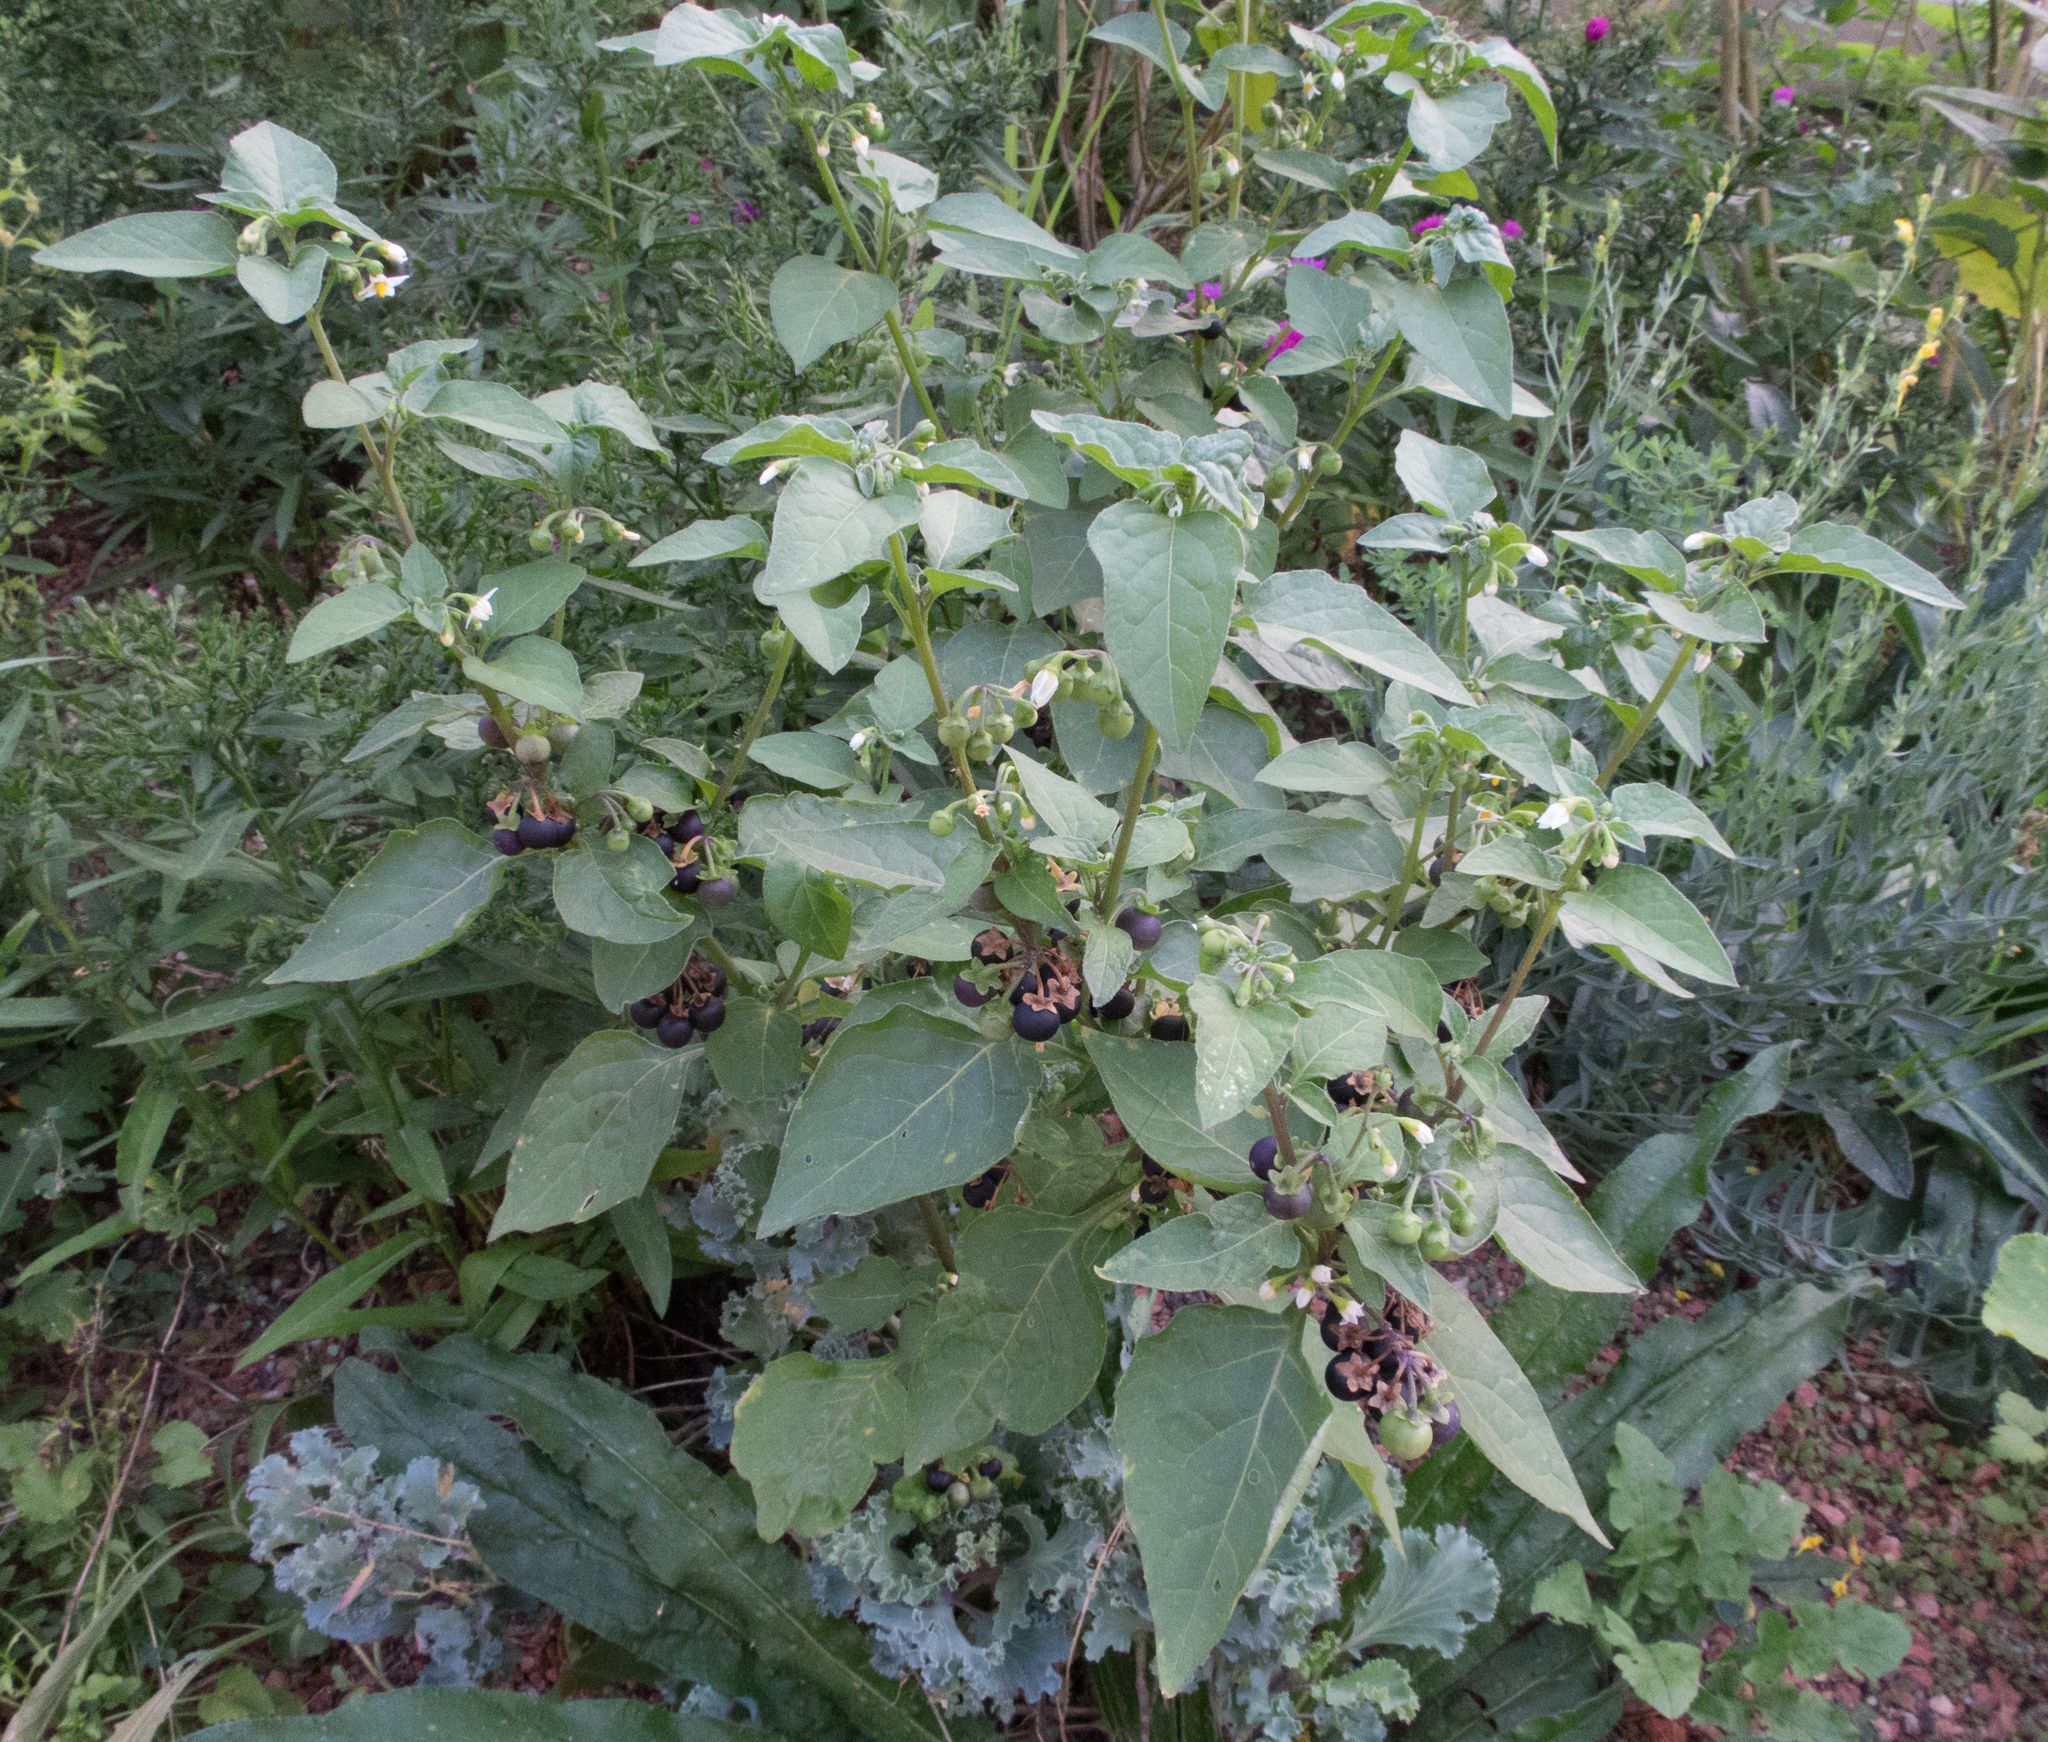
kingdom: Plantae
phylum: Tracheophyta
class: Magnoliopsida
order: Solanales
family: Solanaceae
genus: Solanum
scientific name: Solanum decipiens
